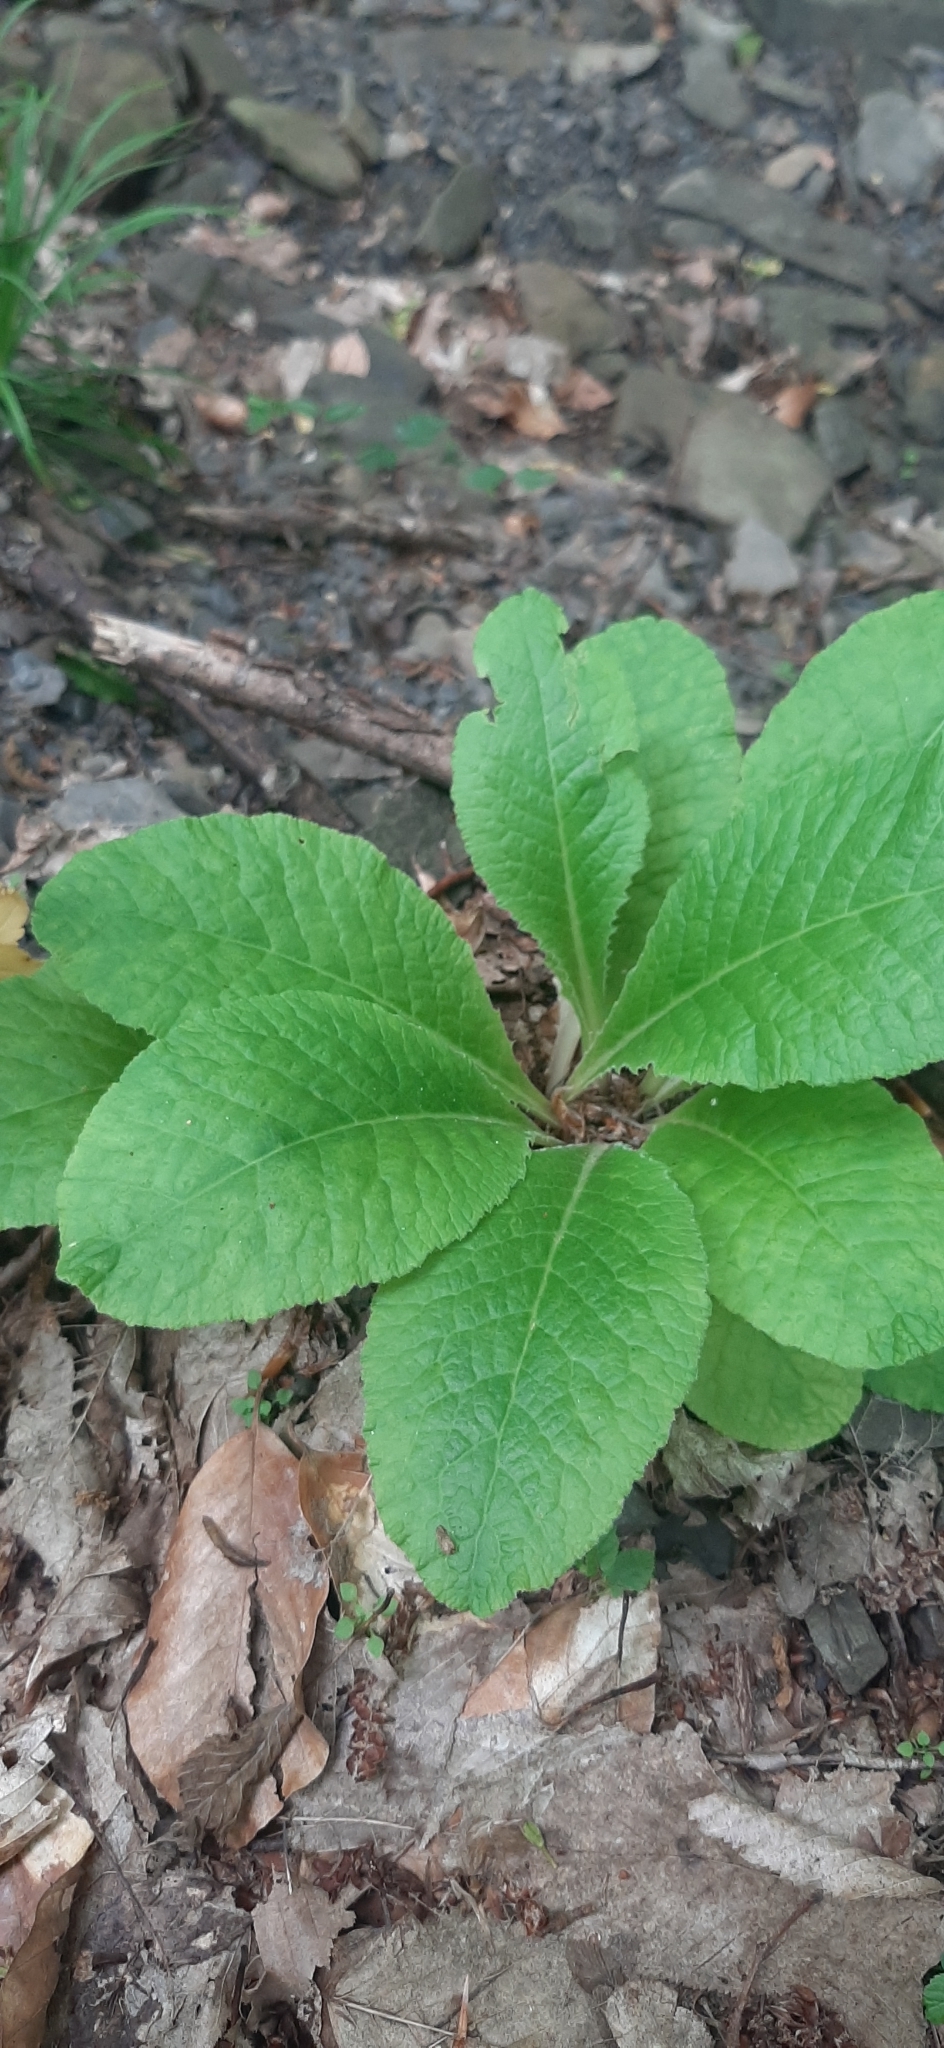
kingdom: Plantae
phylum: Tracheophyta
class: Magnoliopsida
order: Ericales
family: Primulaceae
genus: Primula
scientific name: Primula vulgaris
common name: Primrose
